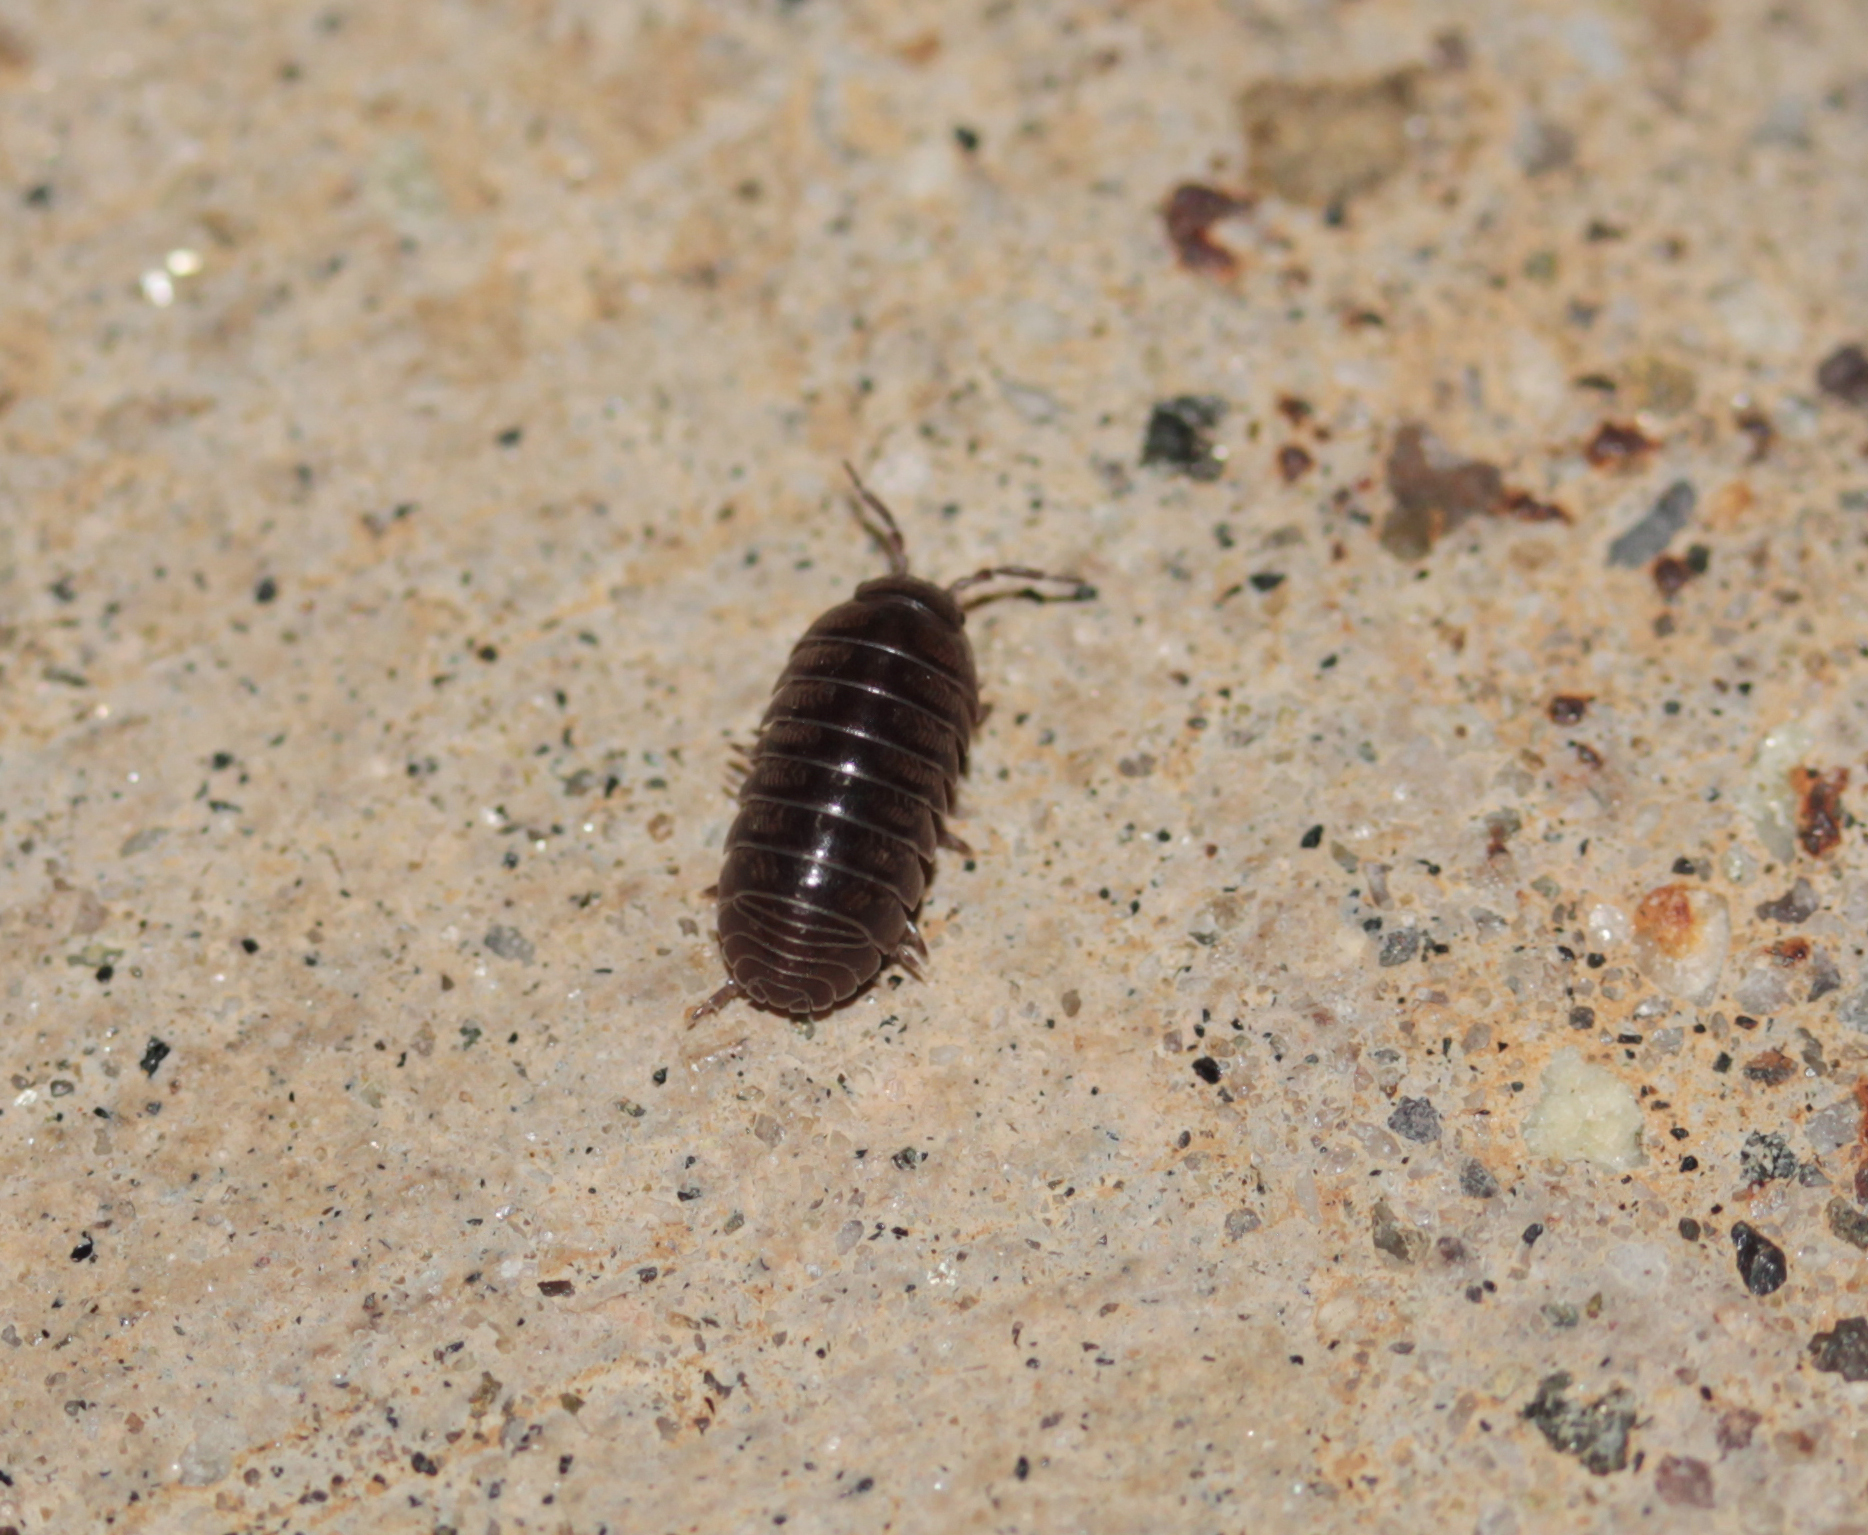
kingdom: Animalia
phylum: Arthropoda
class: Malacostraca
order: Isopoda
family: Armadillidiidae
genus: Armadillidium
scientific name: Armadillidium vulgare
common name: Common pill woodlouse
